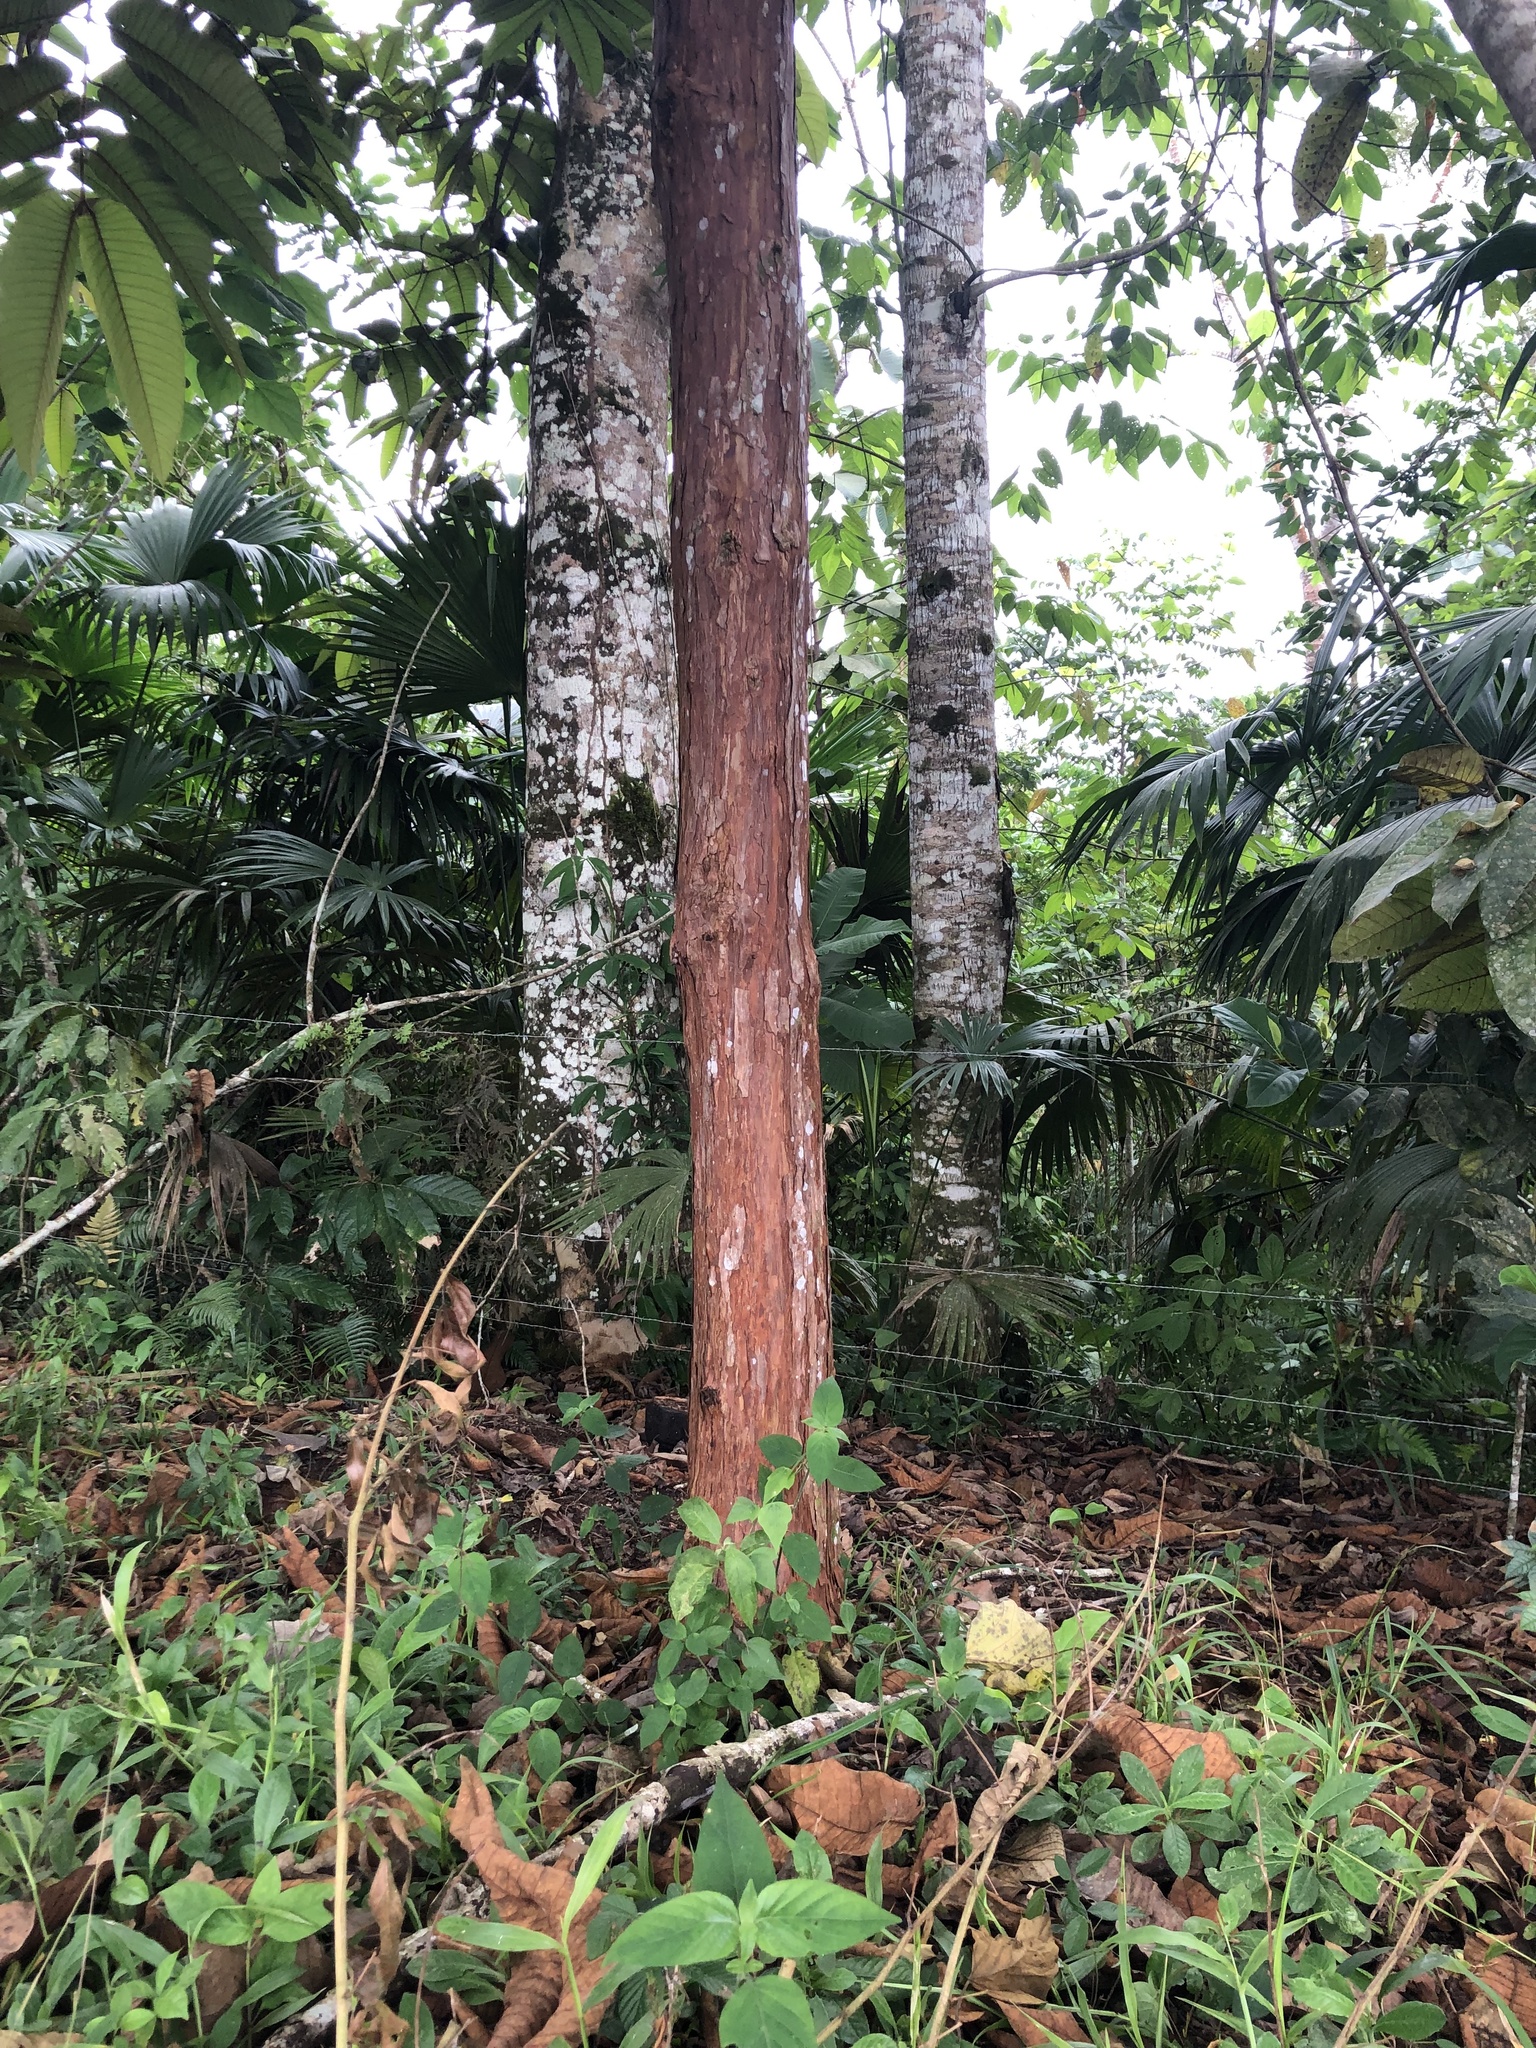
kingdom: Plantae
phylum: Tracheophyta
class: Magnoliopsida
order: Malpighiales
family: Hypericaceae
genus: Vismia
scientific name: Vismia baccifera
